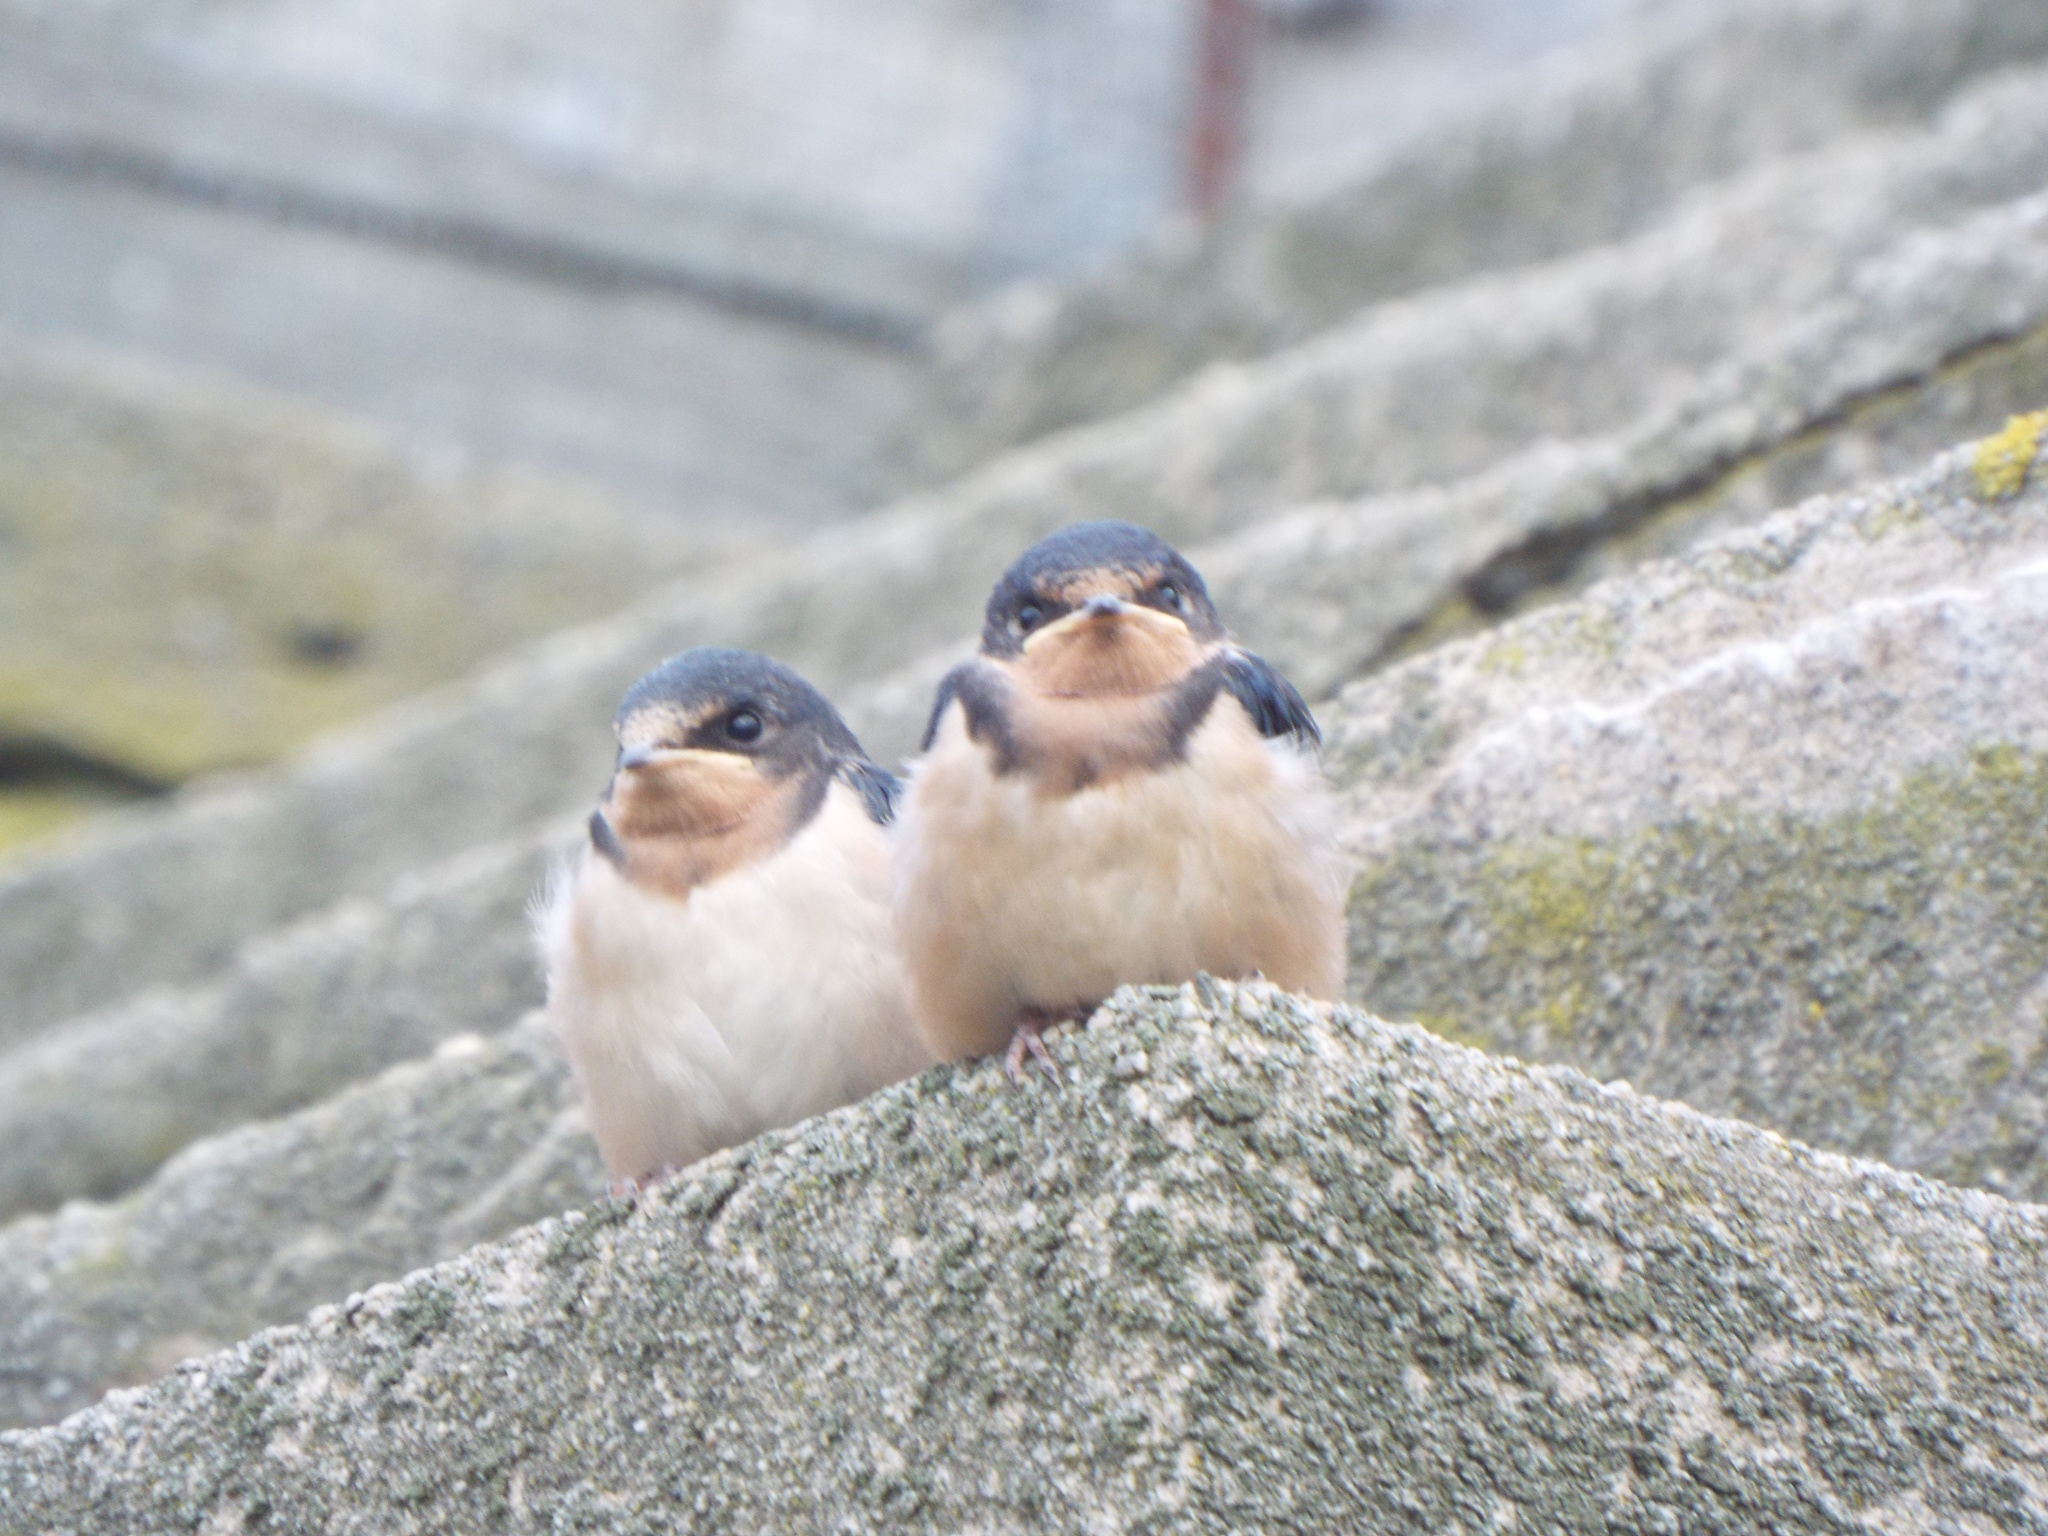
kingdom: Animalia
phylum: Chordata
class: Aves
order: Passeriformes
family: Hirundinidae
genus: Hirundo
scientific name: Hirundo rustica
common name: Barn swallow
